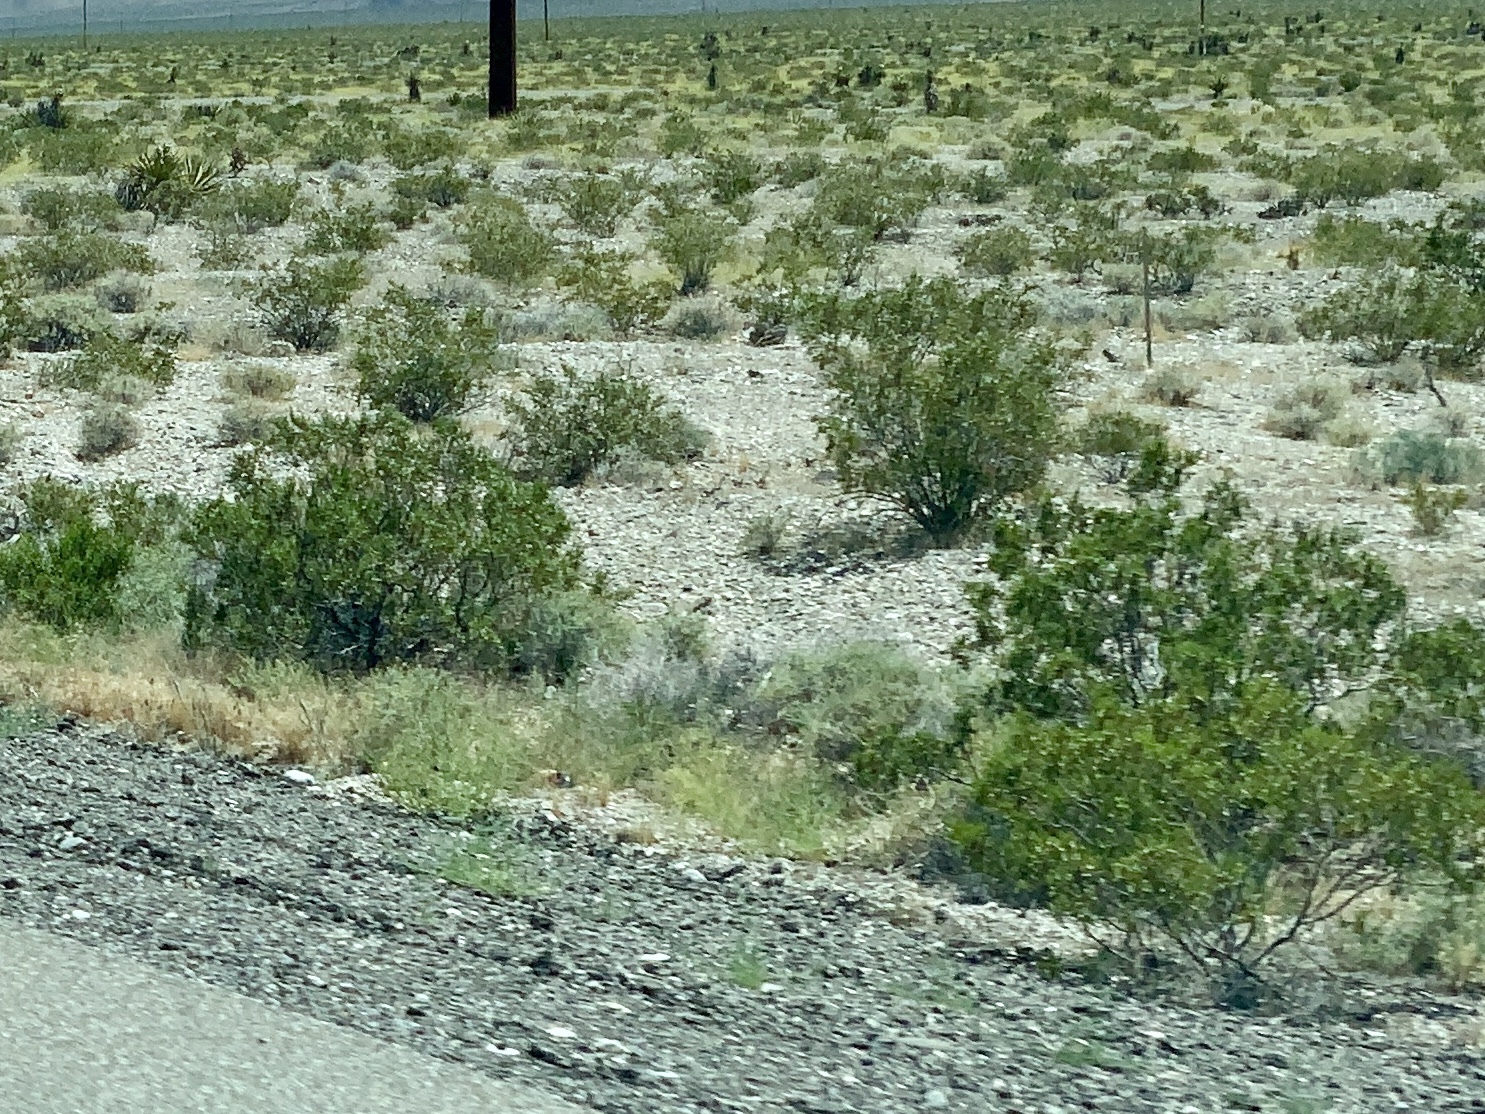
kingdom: Plantae
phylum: Tracheophyta
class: Magnoliopsida
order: Zygophyllales
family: Zygophyllaceae
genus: Larrea
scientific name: Larrea tridentata
